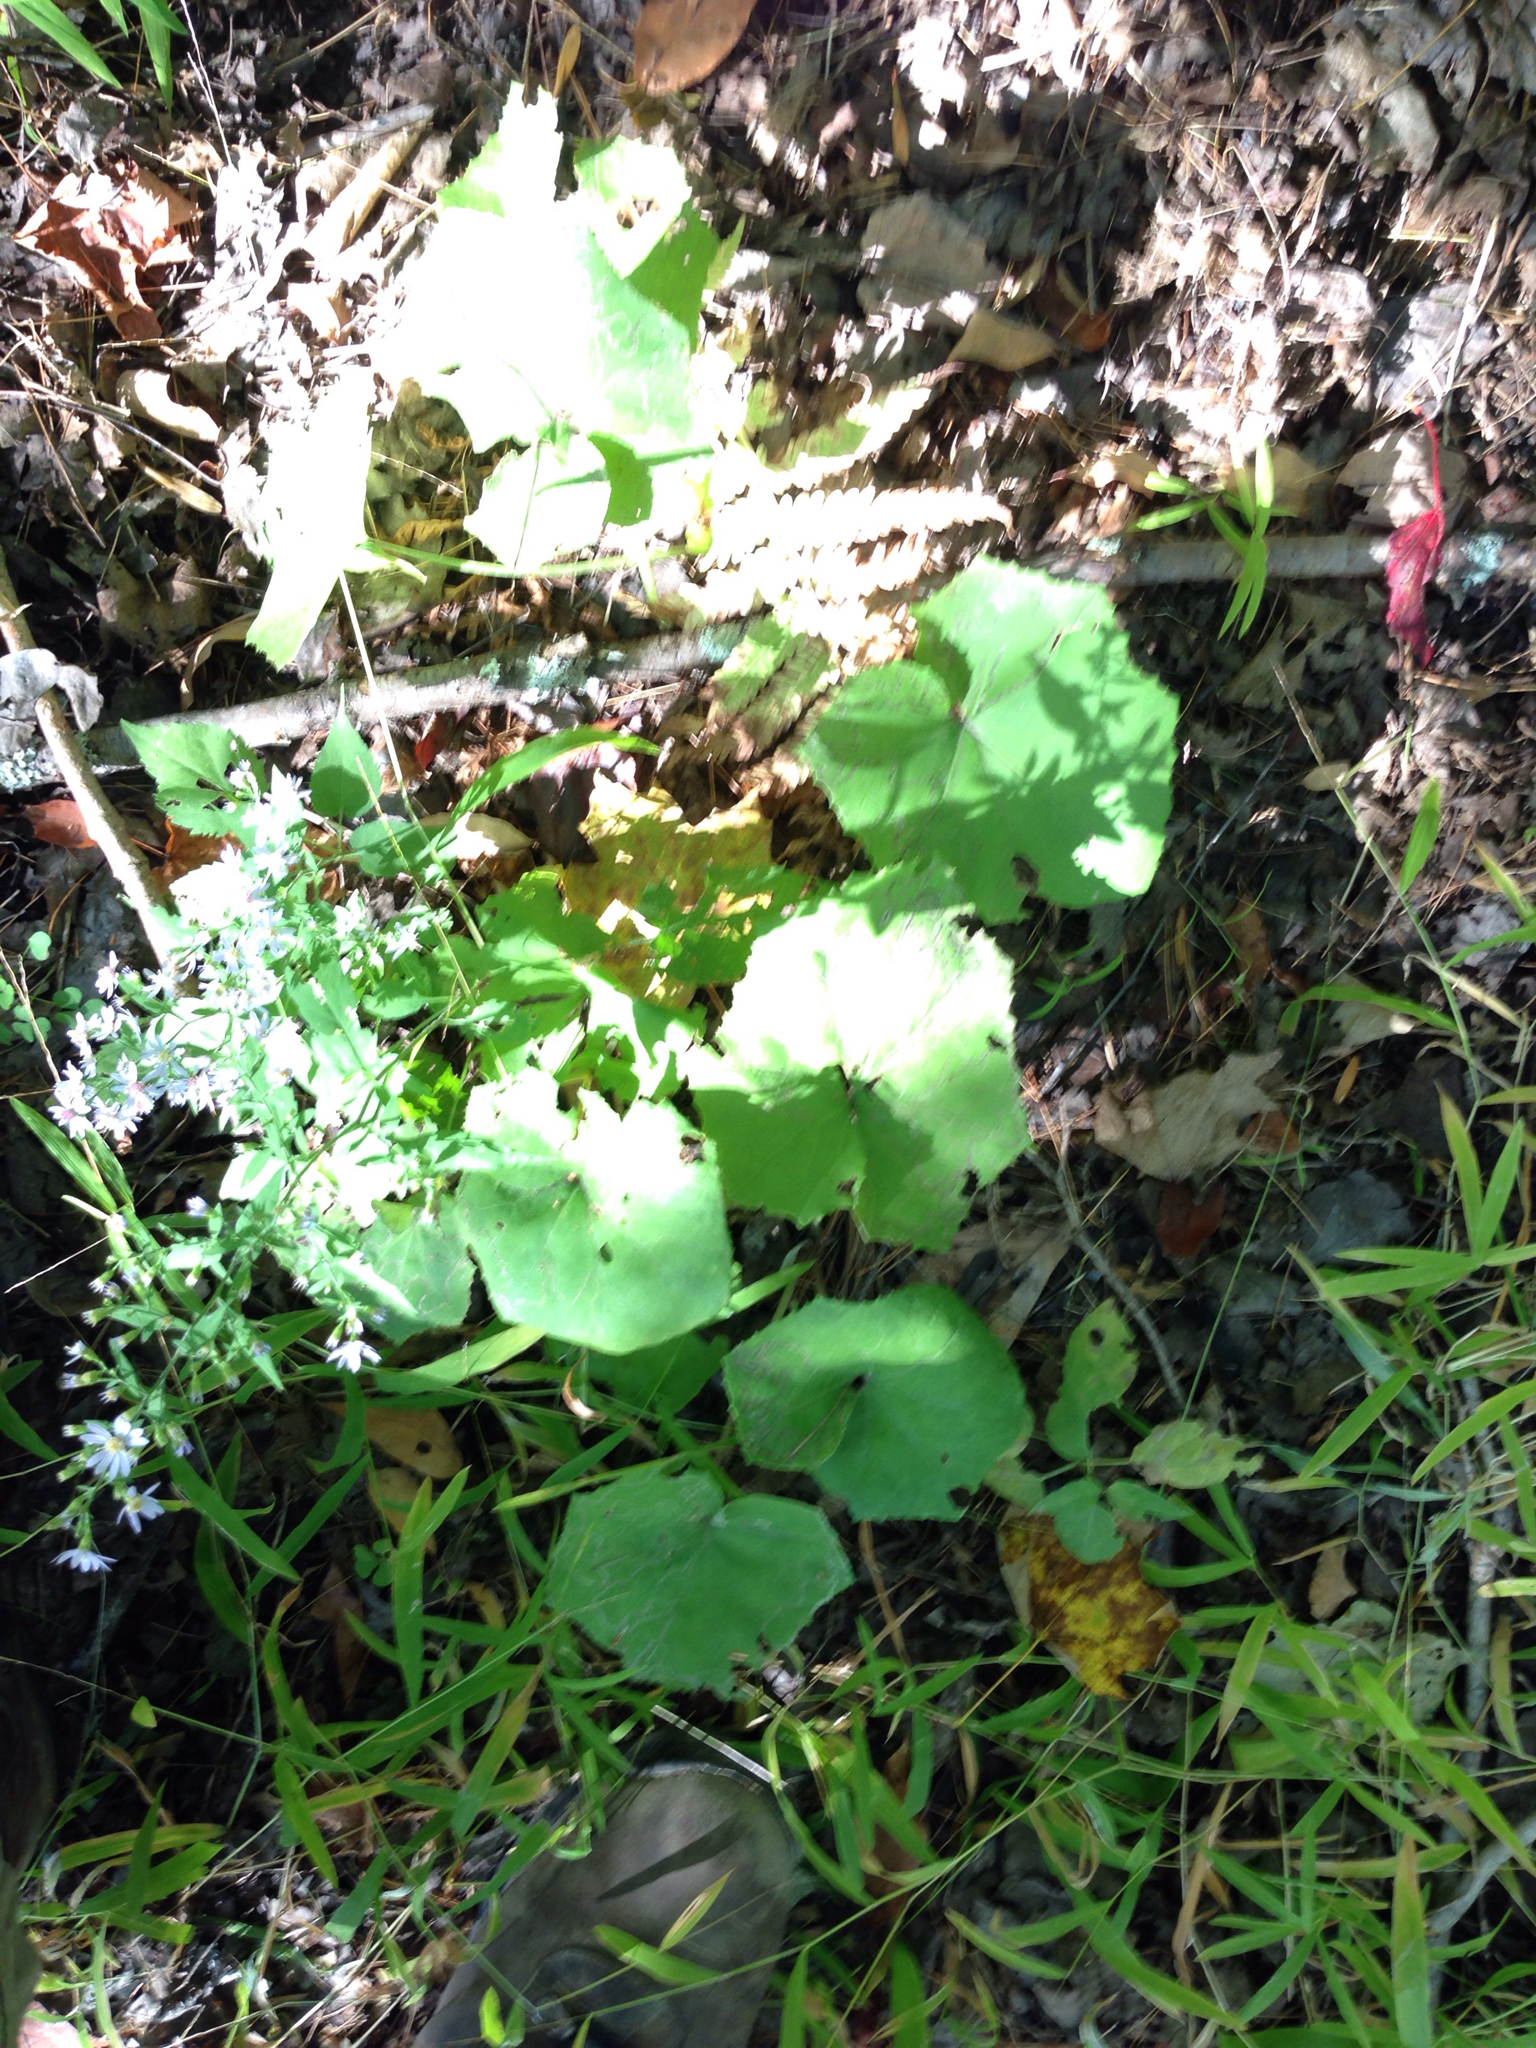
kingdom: Plantae
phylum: Tracheophyta
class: Magnoliopsida
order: Asterales
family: Asteraceae
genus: Tussilago
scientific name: Tussilago farfara
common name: Coltsfoot
